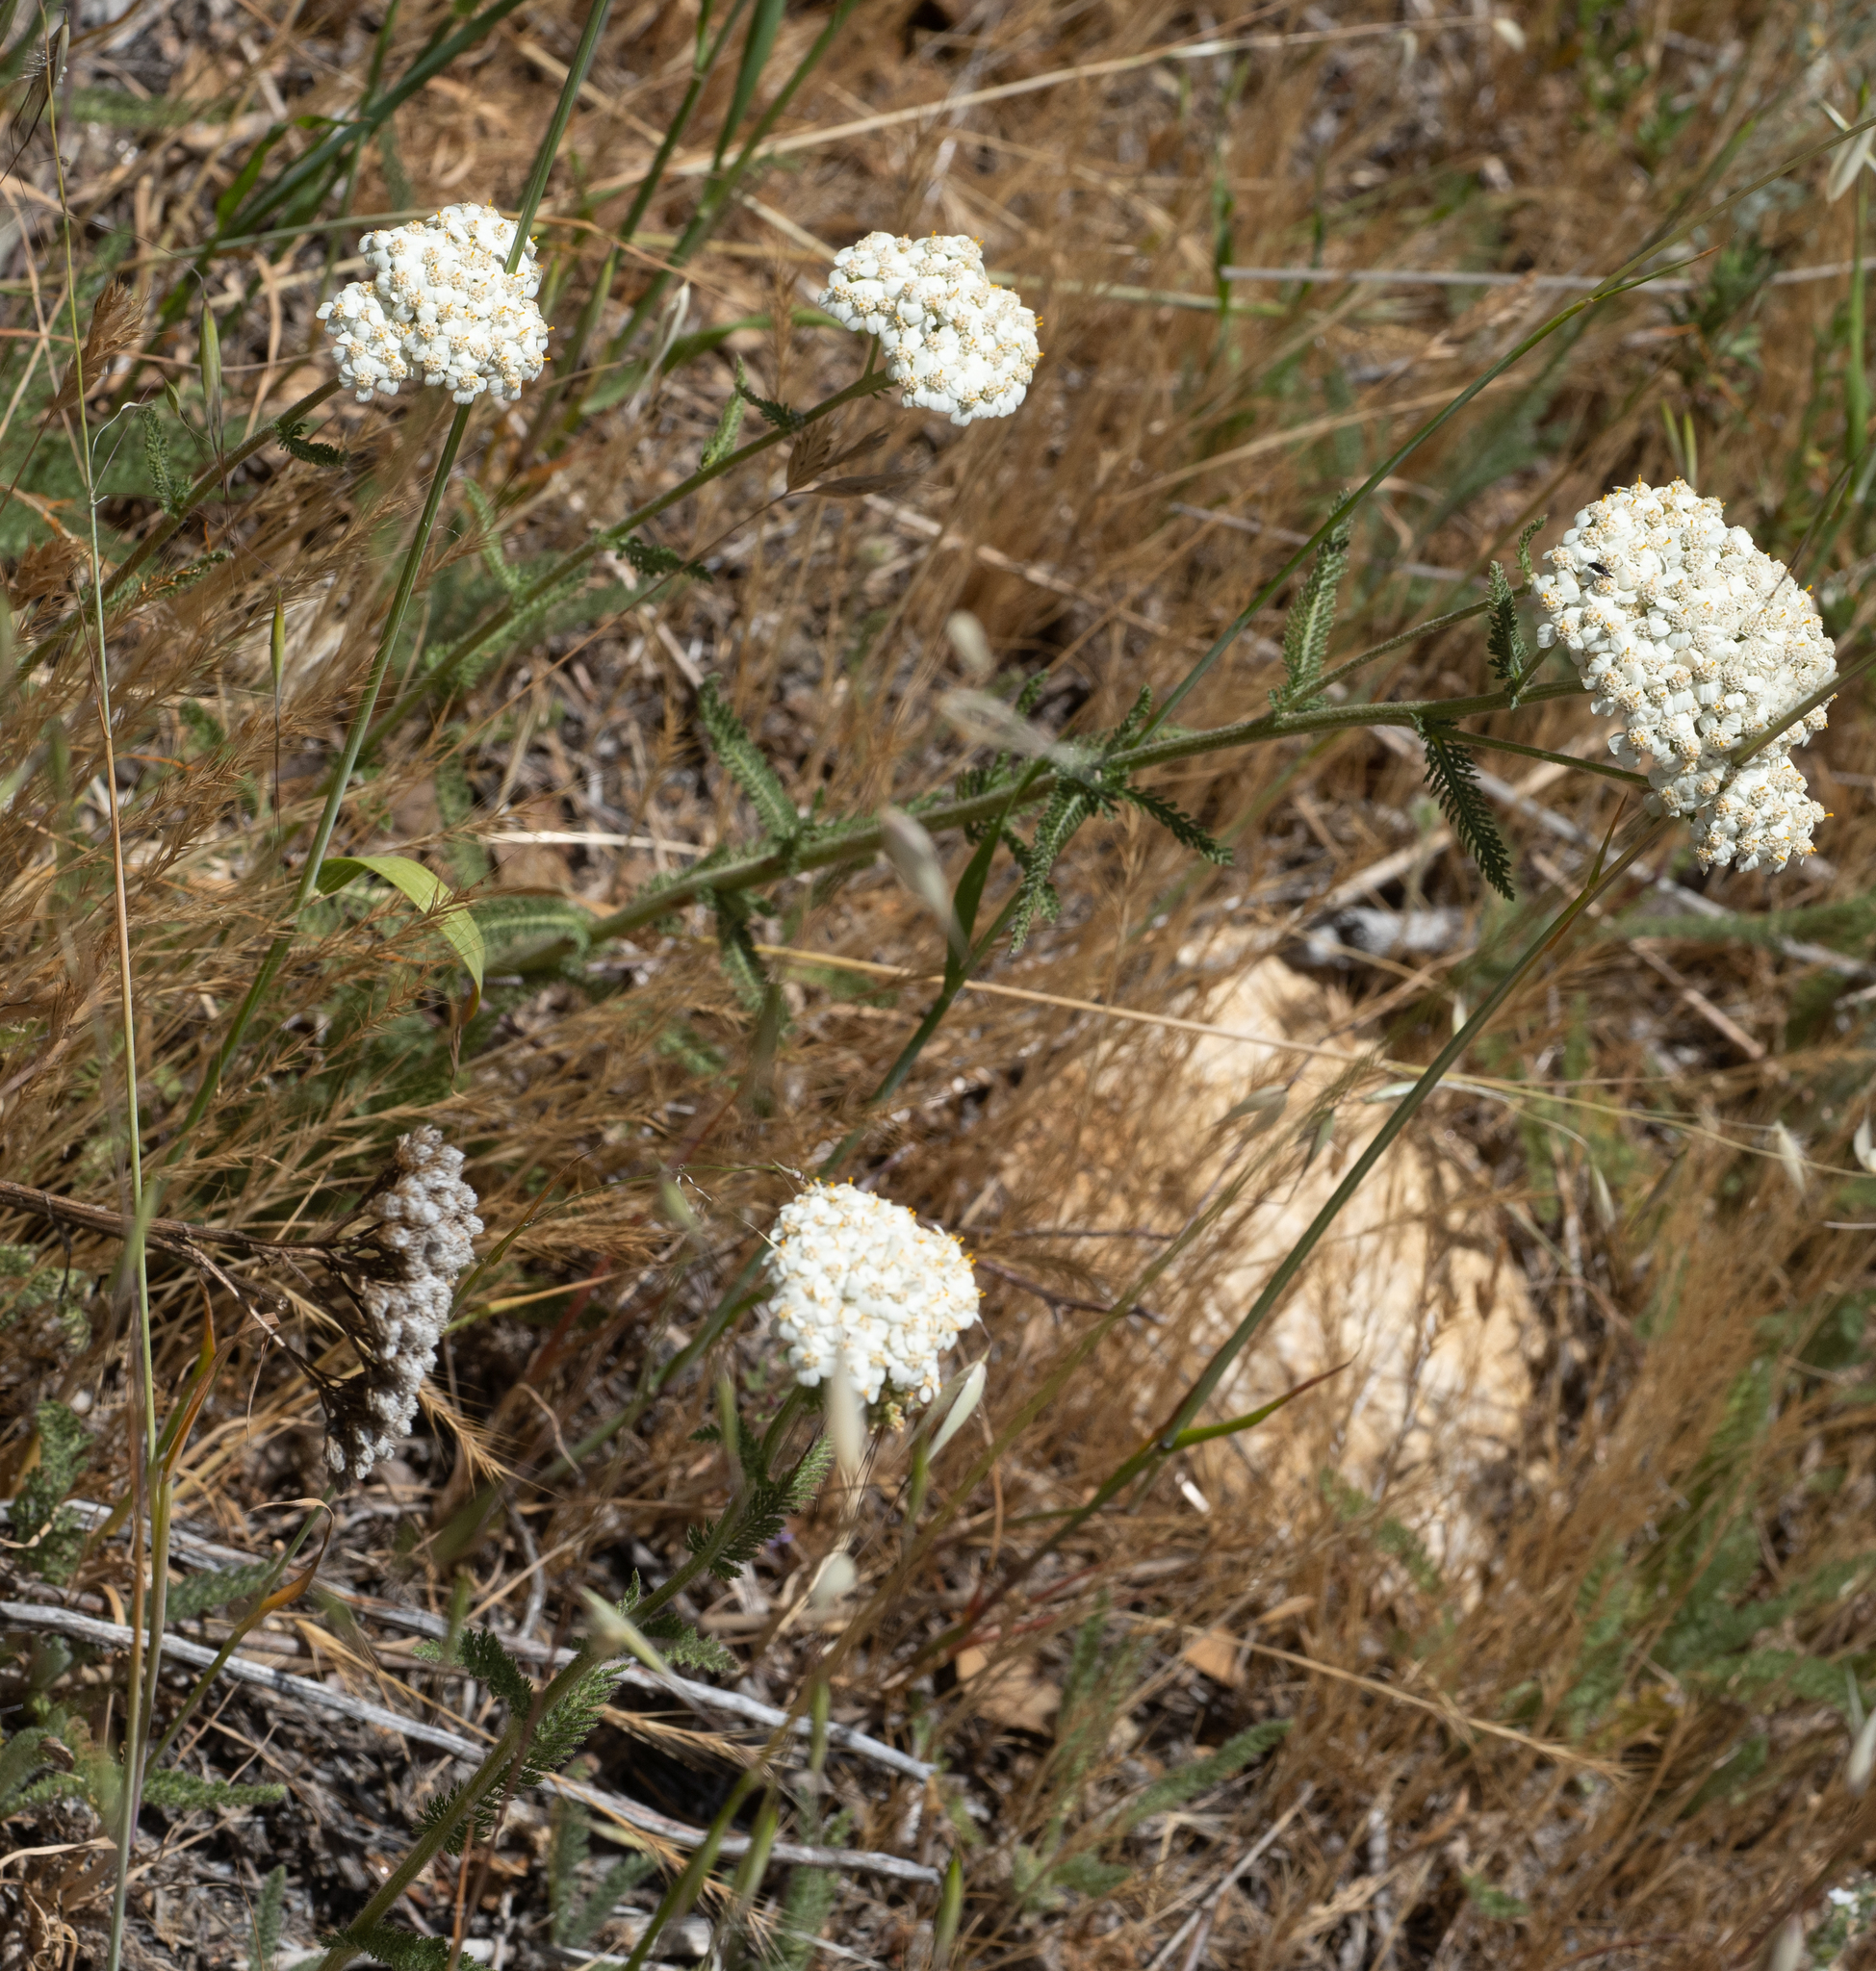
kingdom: Plantae
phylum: Tracheophyta
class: Magnoliopsida
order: Asterales
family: Asteraceae
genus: Achillea
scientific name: Achillea millefolium
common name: Yarrow
